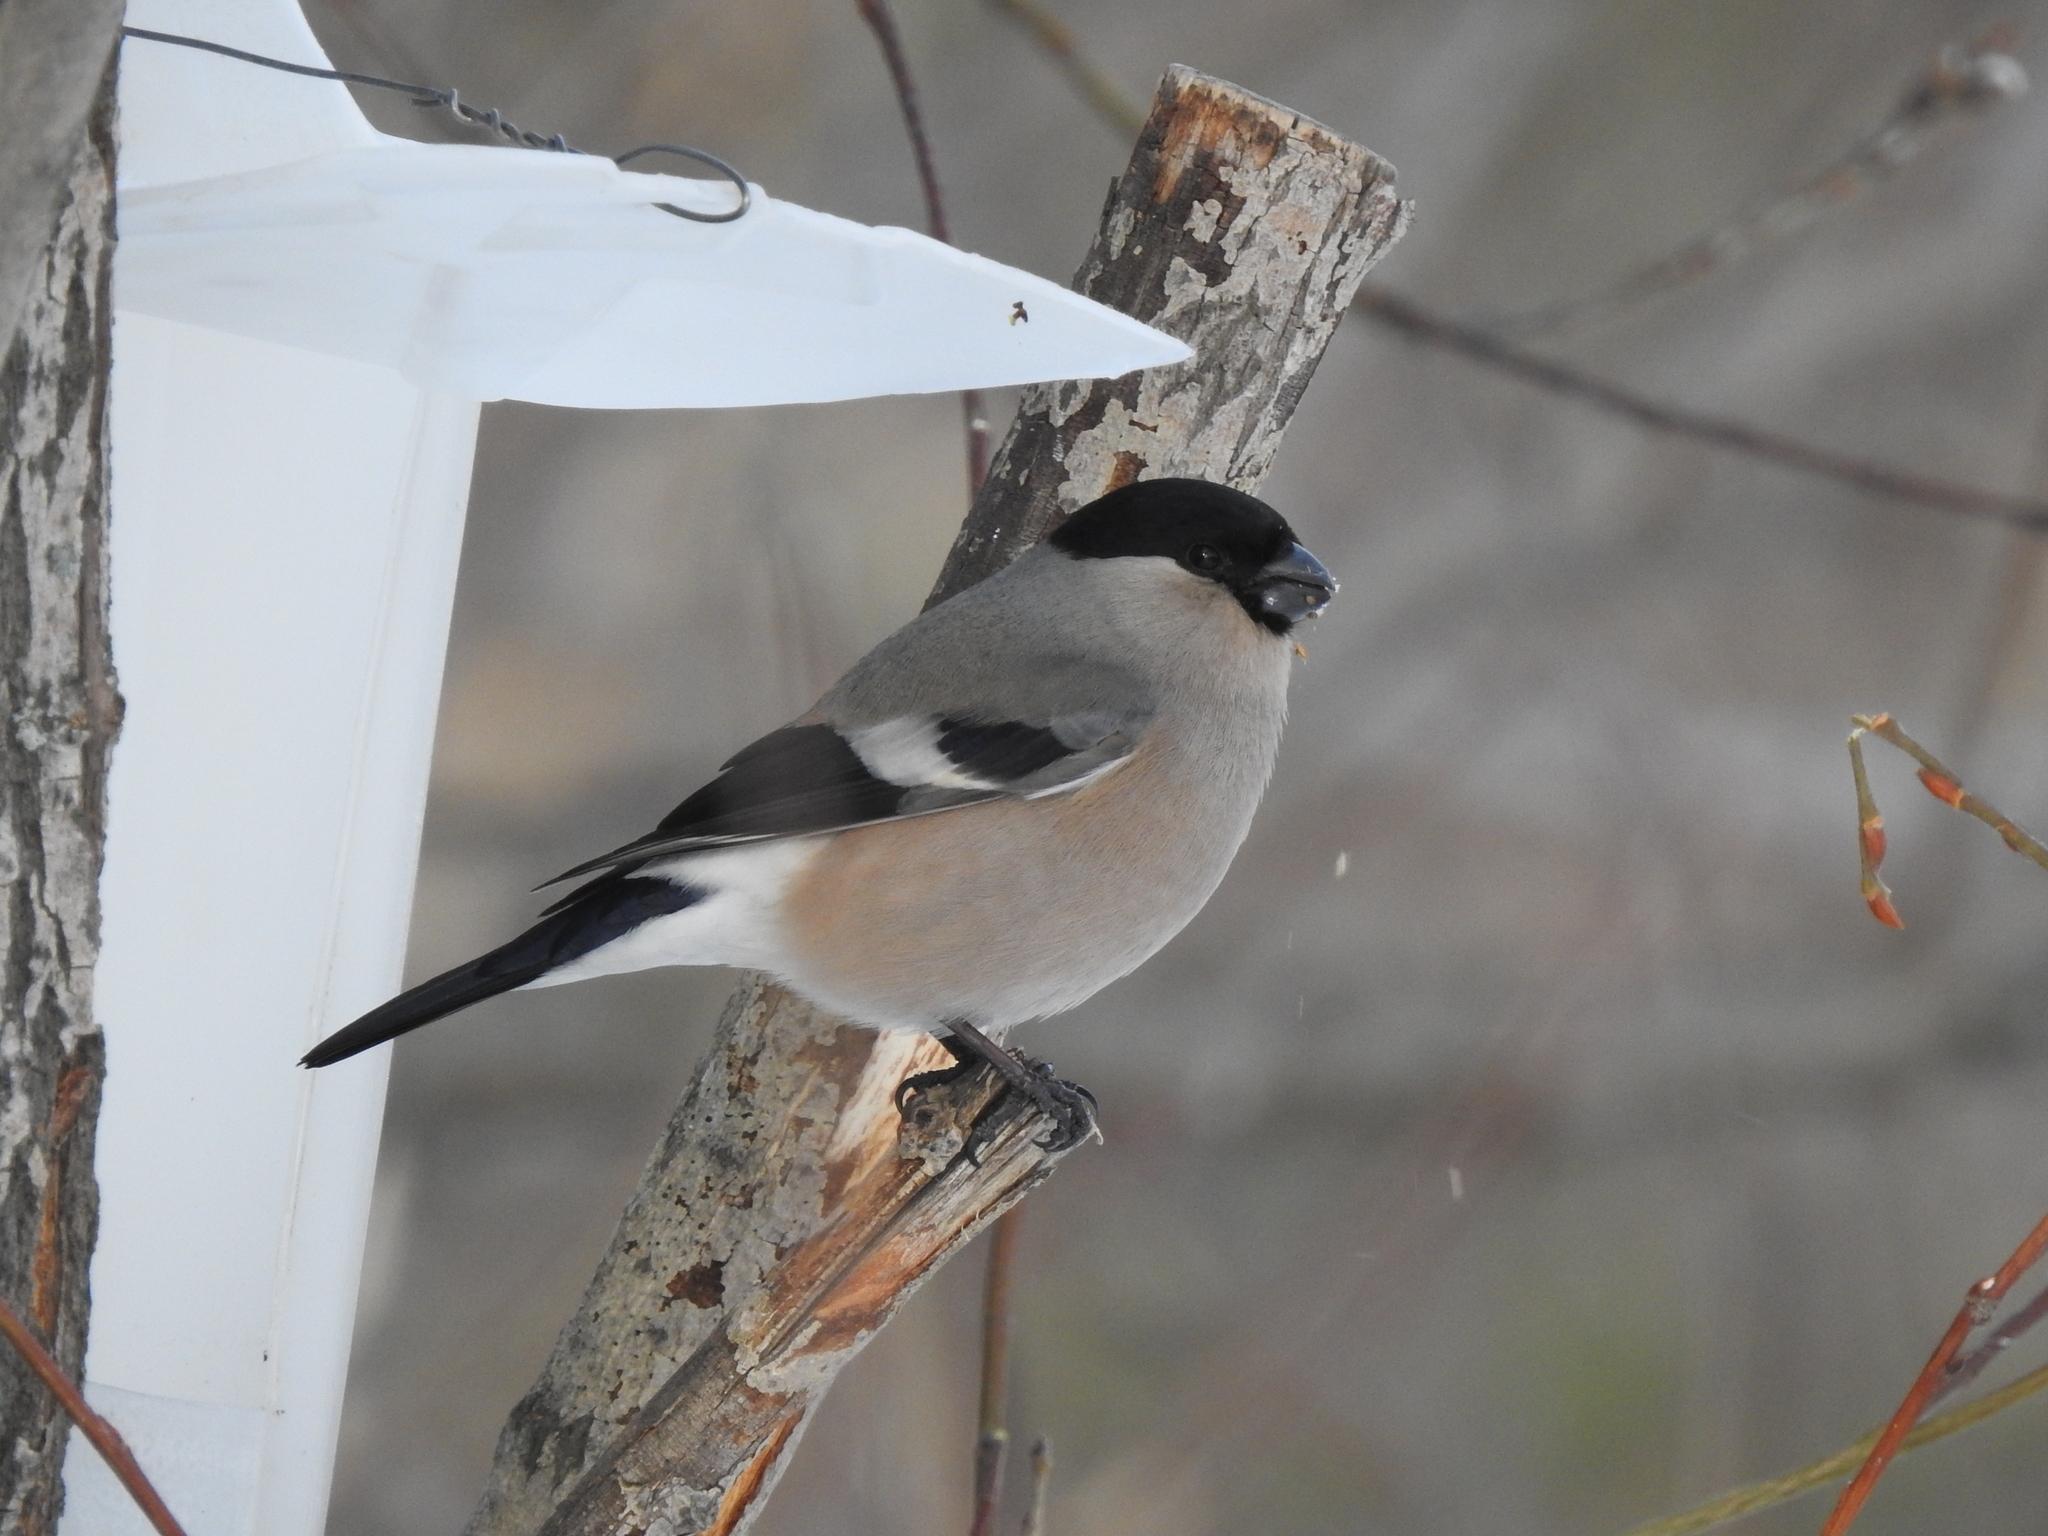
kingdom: Animalia
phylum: Chordata
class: Aves
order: Passeriformes
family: Fringillidae
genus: Pyrrhula
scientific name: Pyrrhula pyrrhula
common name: Eurasian bullfinch
